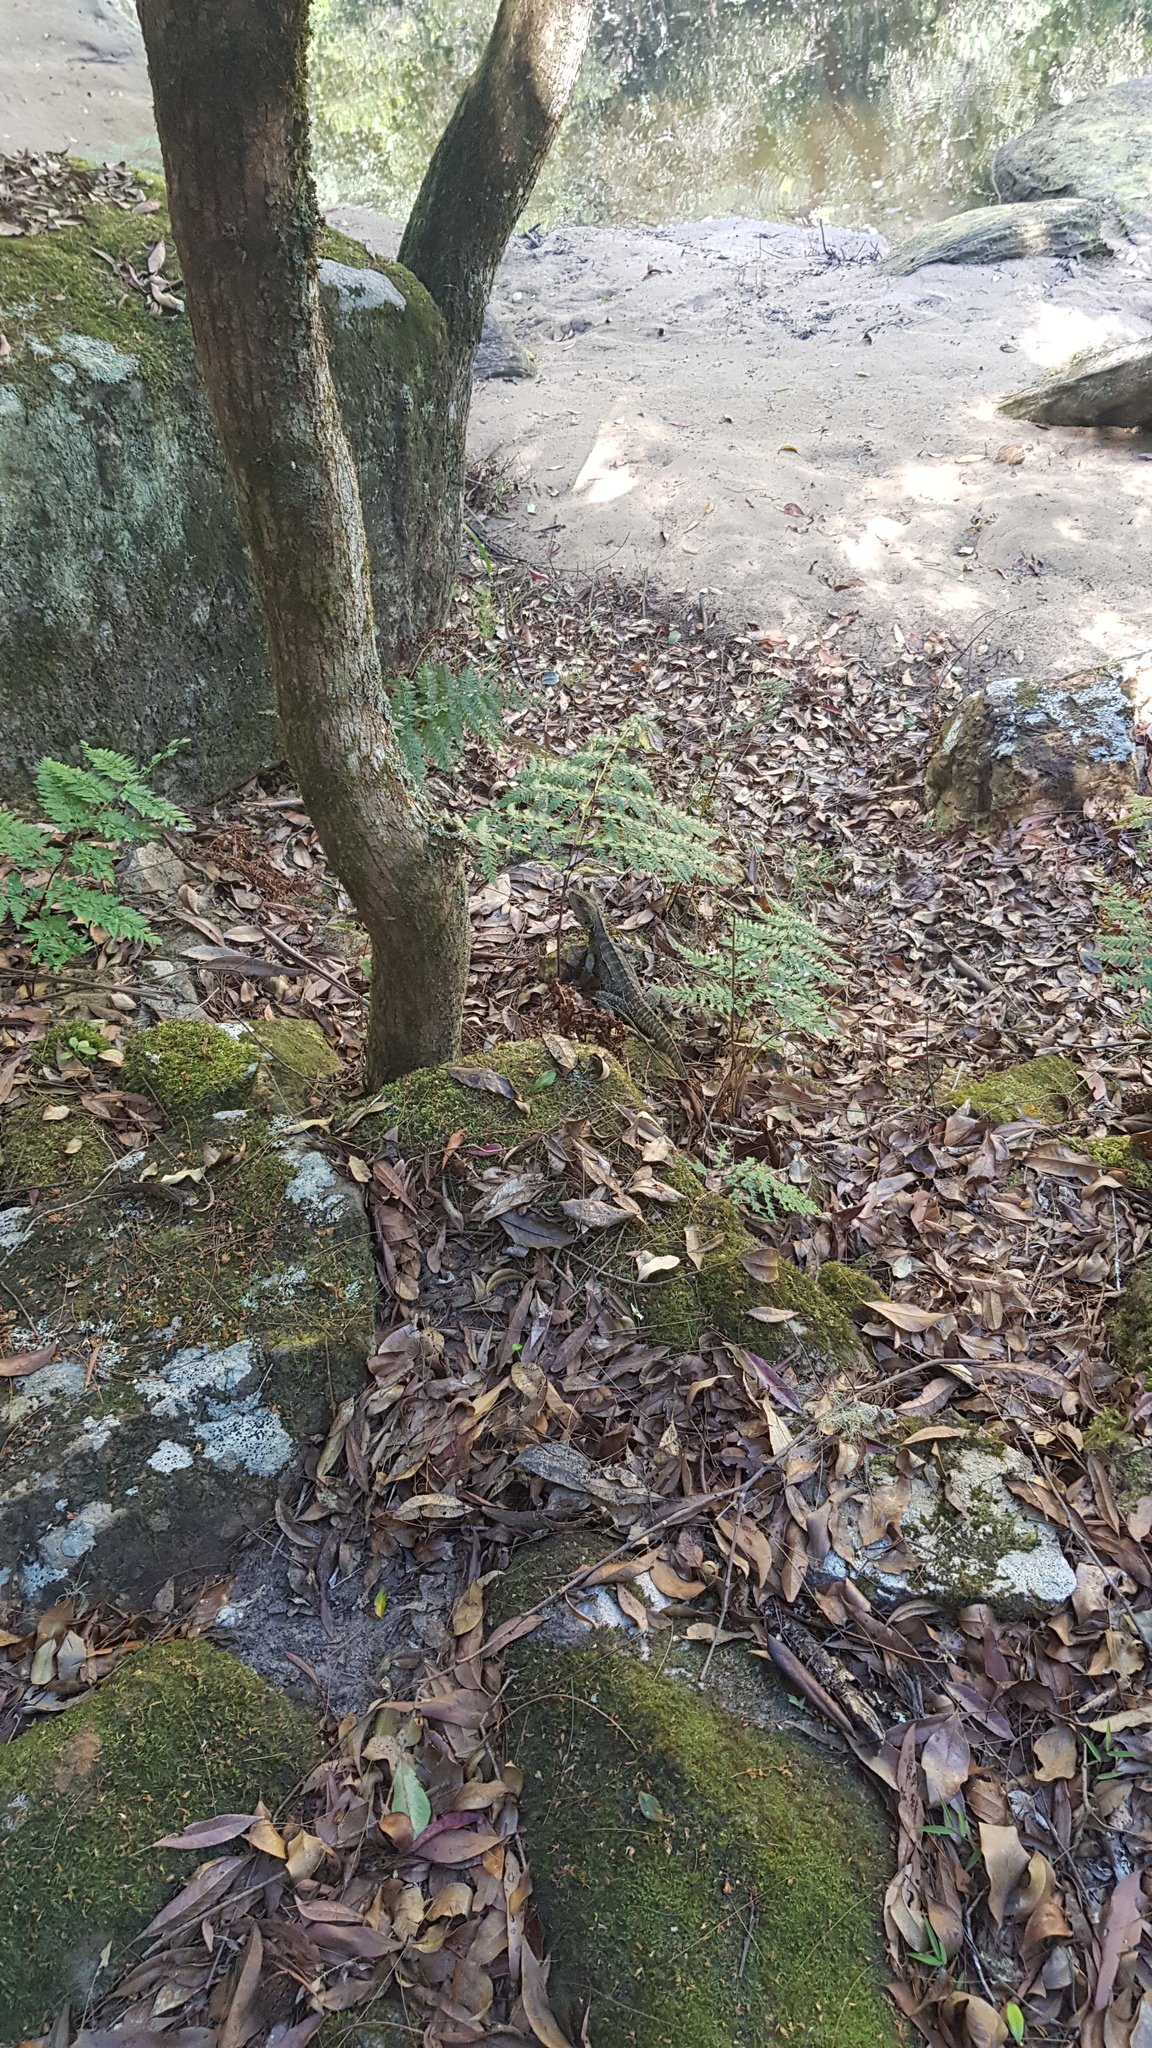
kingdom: Animalia
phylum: Chordata
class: Squamata
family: Agamidae
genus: Intellagama
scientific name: Intellagama lesueurii
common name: Eastern water dragon
